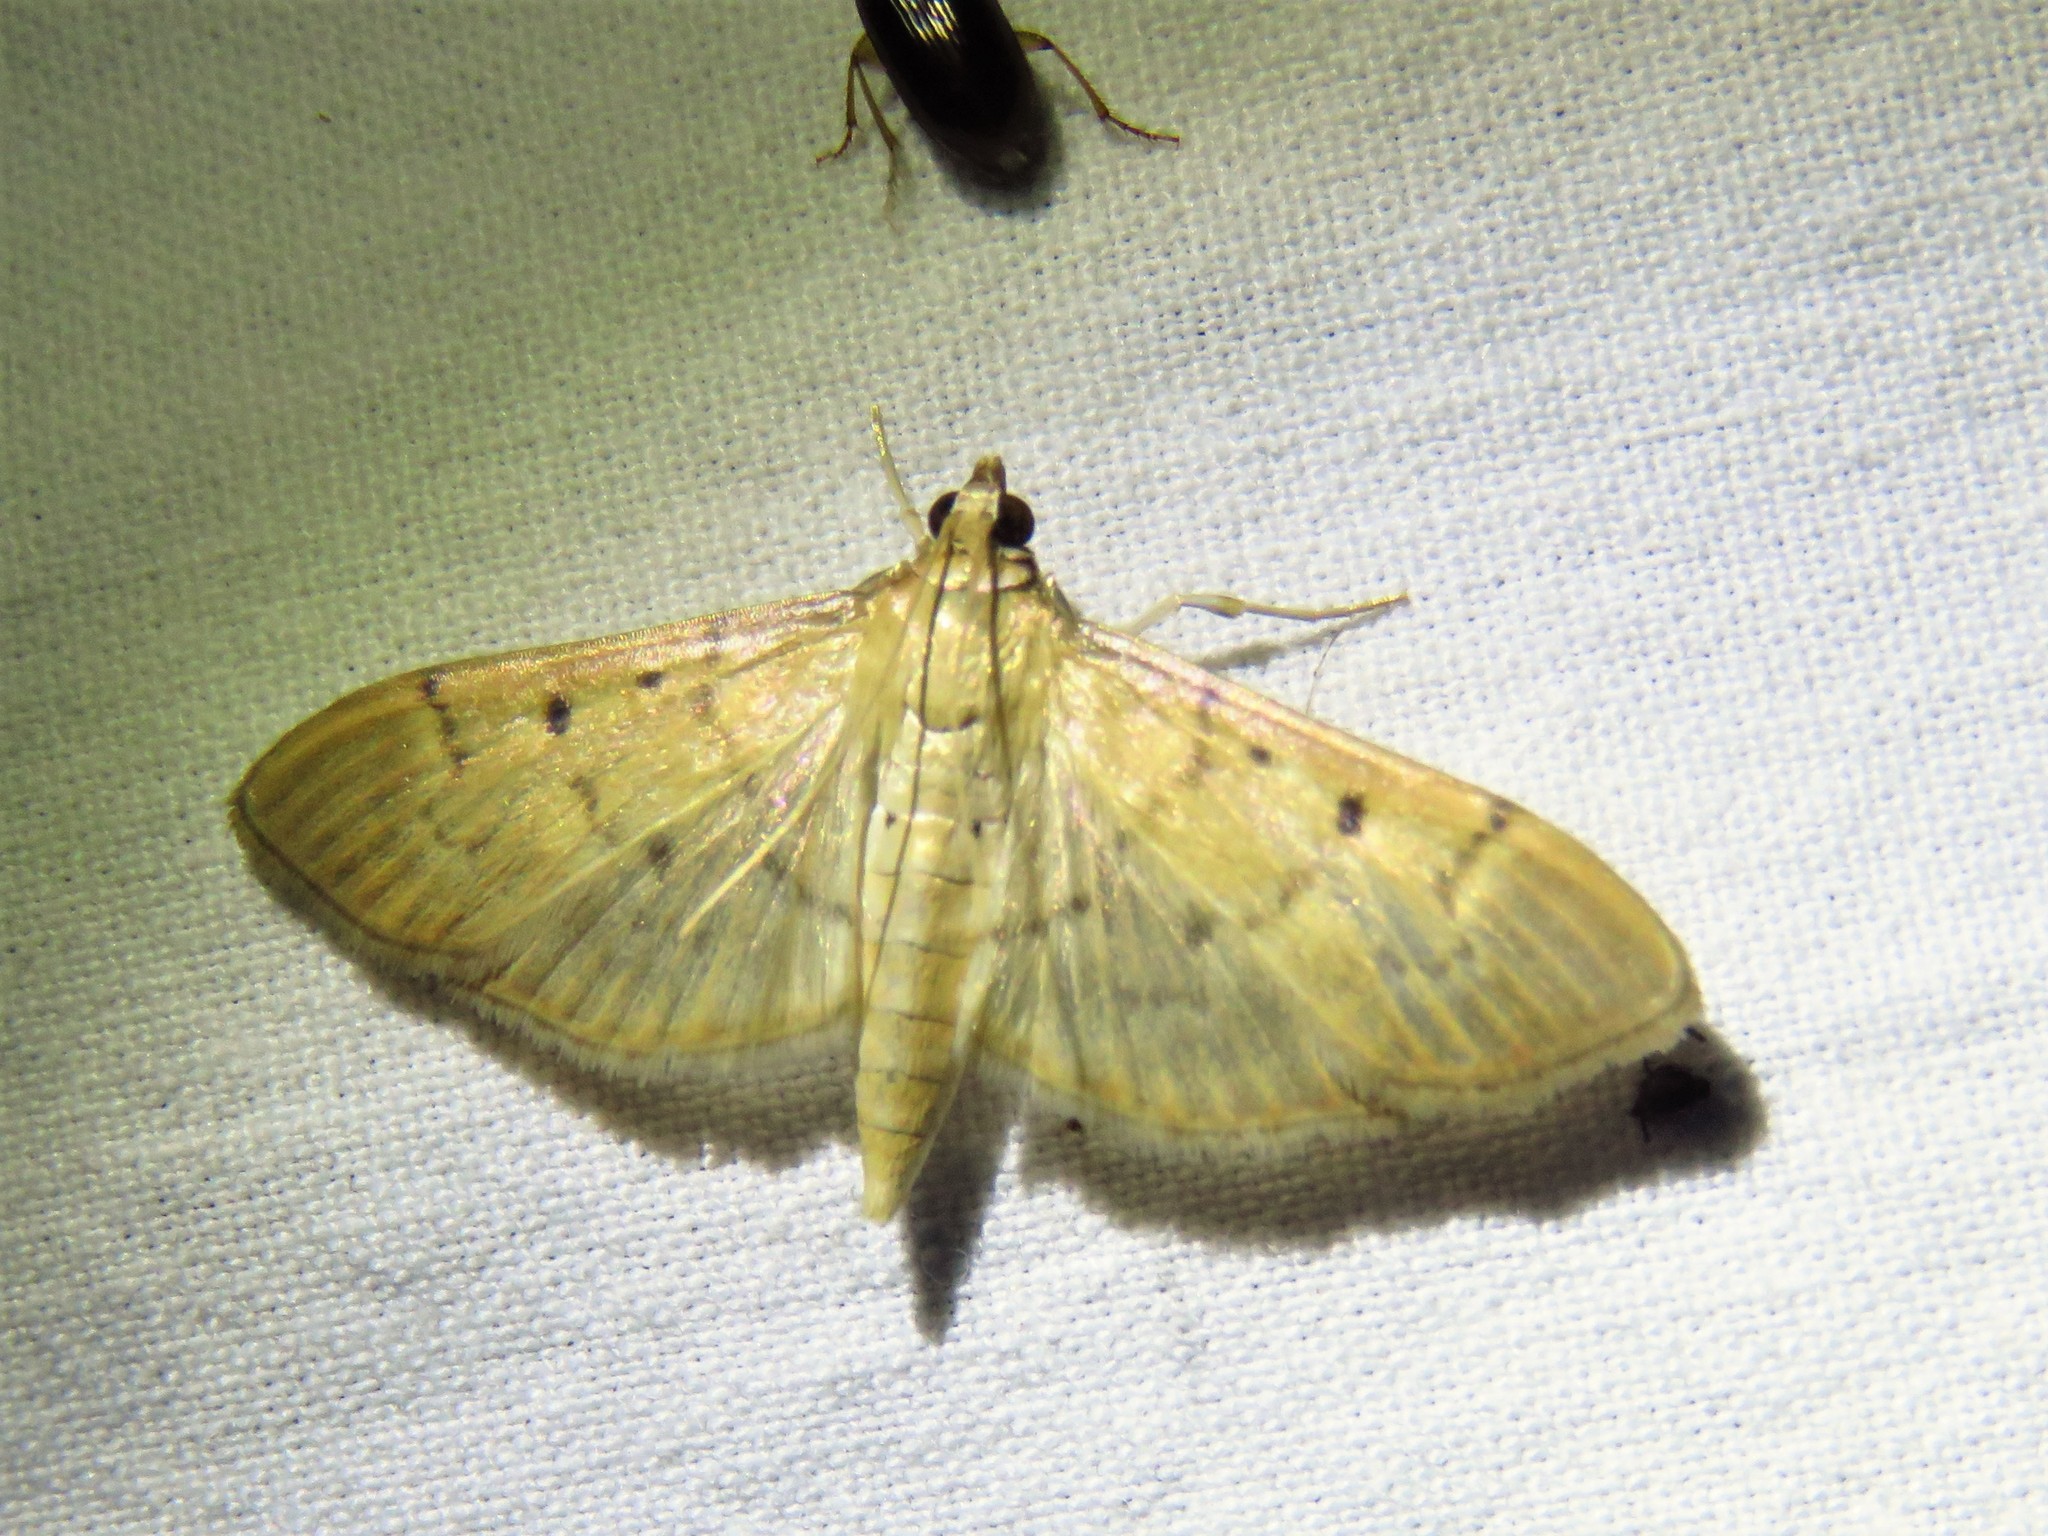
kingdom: Animalia
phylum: Arthropoda
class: Insecta
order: Lepidoptera
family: Crambidae
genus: Herpetogramma
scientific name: Herpetogramma bipunctalis
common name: Southern beet webworm
